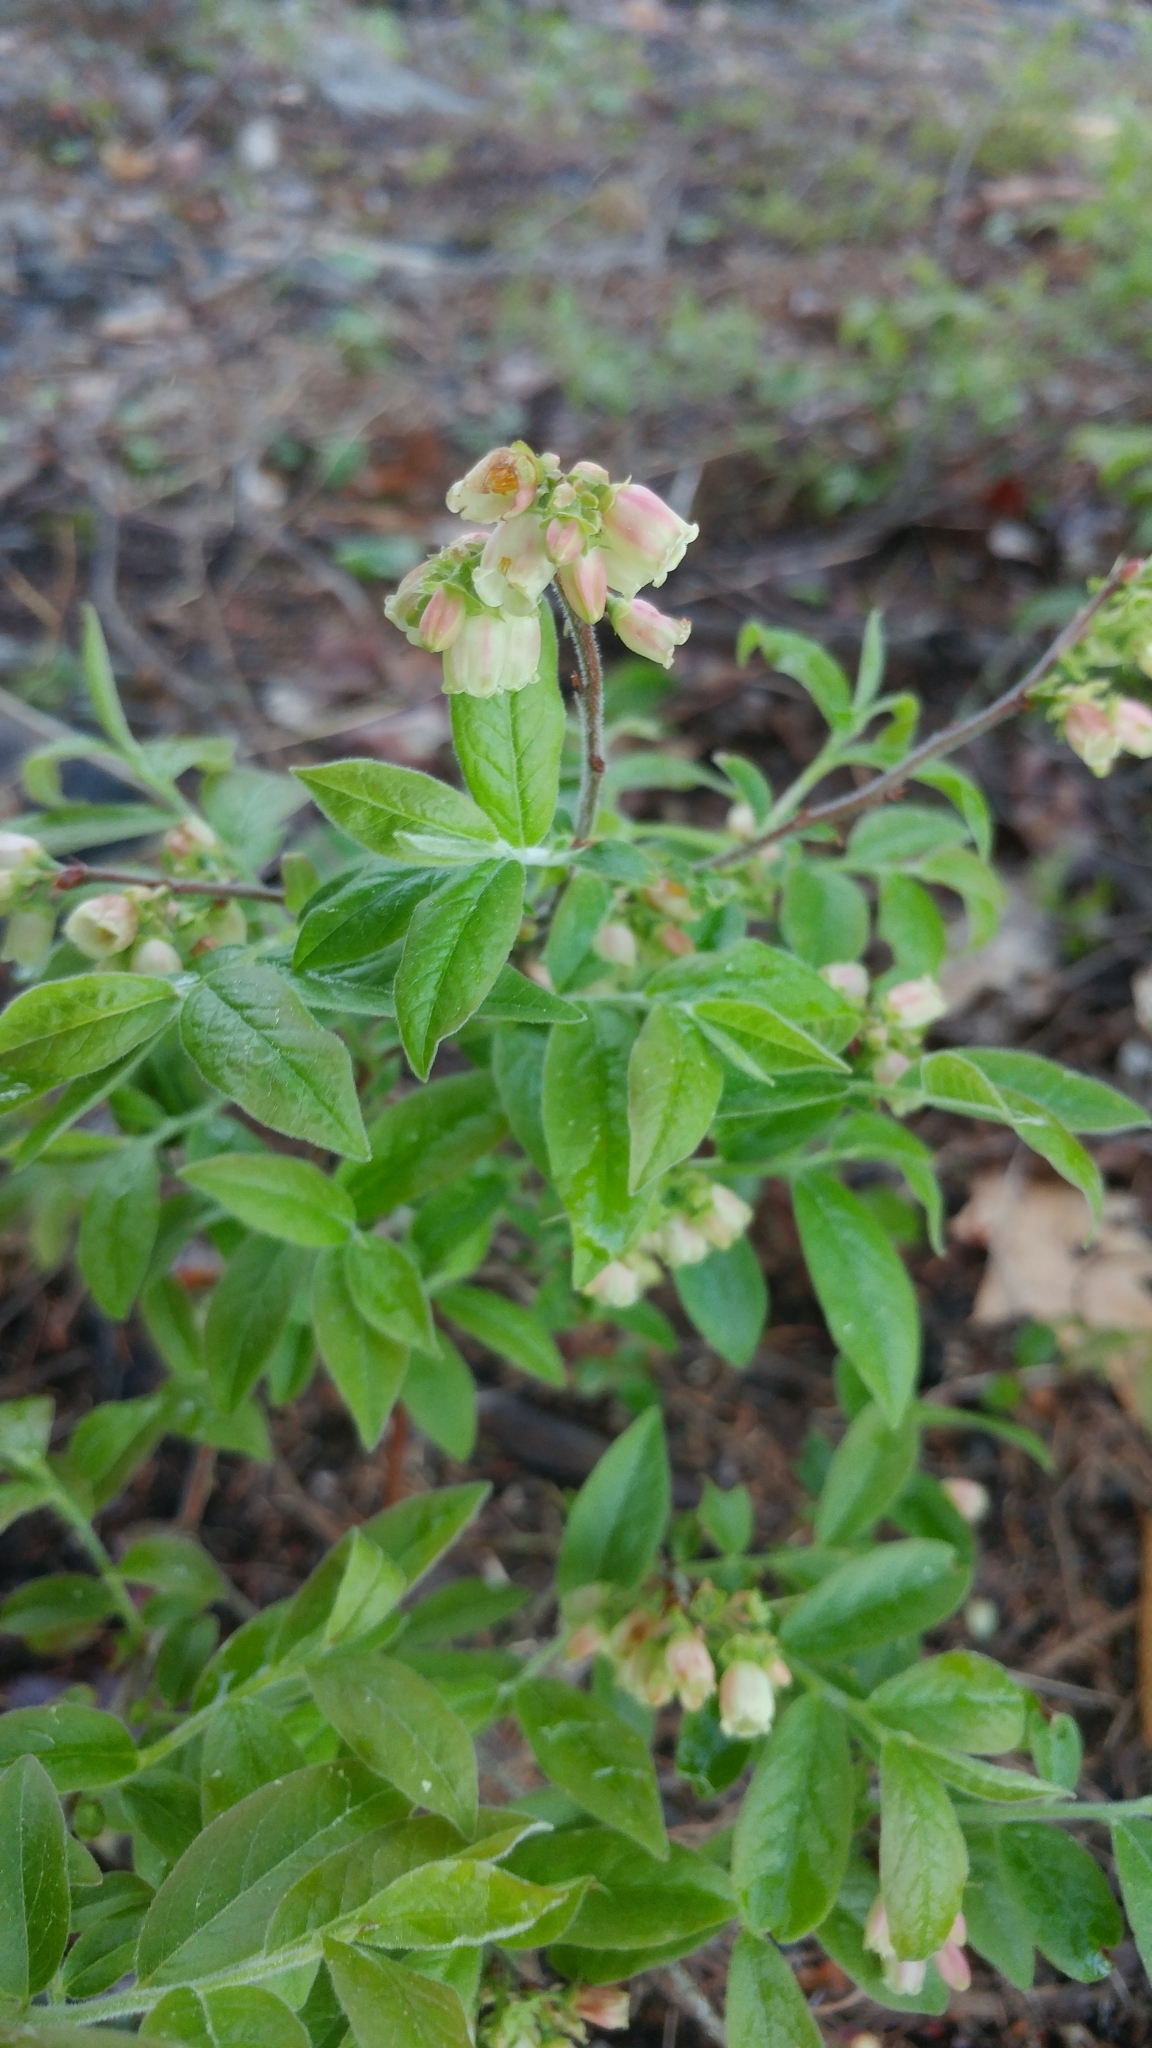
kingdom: Plantae
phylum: Tracheophyta
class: Magnoliopsida
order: Ericales
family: Ericaceae
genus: Vaccinium
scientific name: Vaccinium myrtilloides
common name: Canada blueberry
